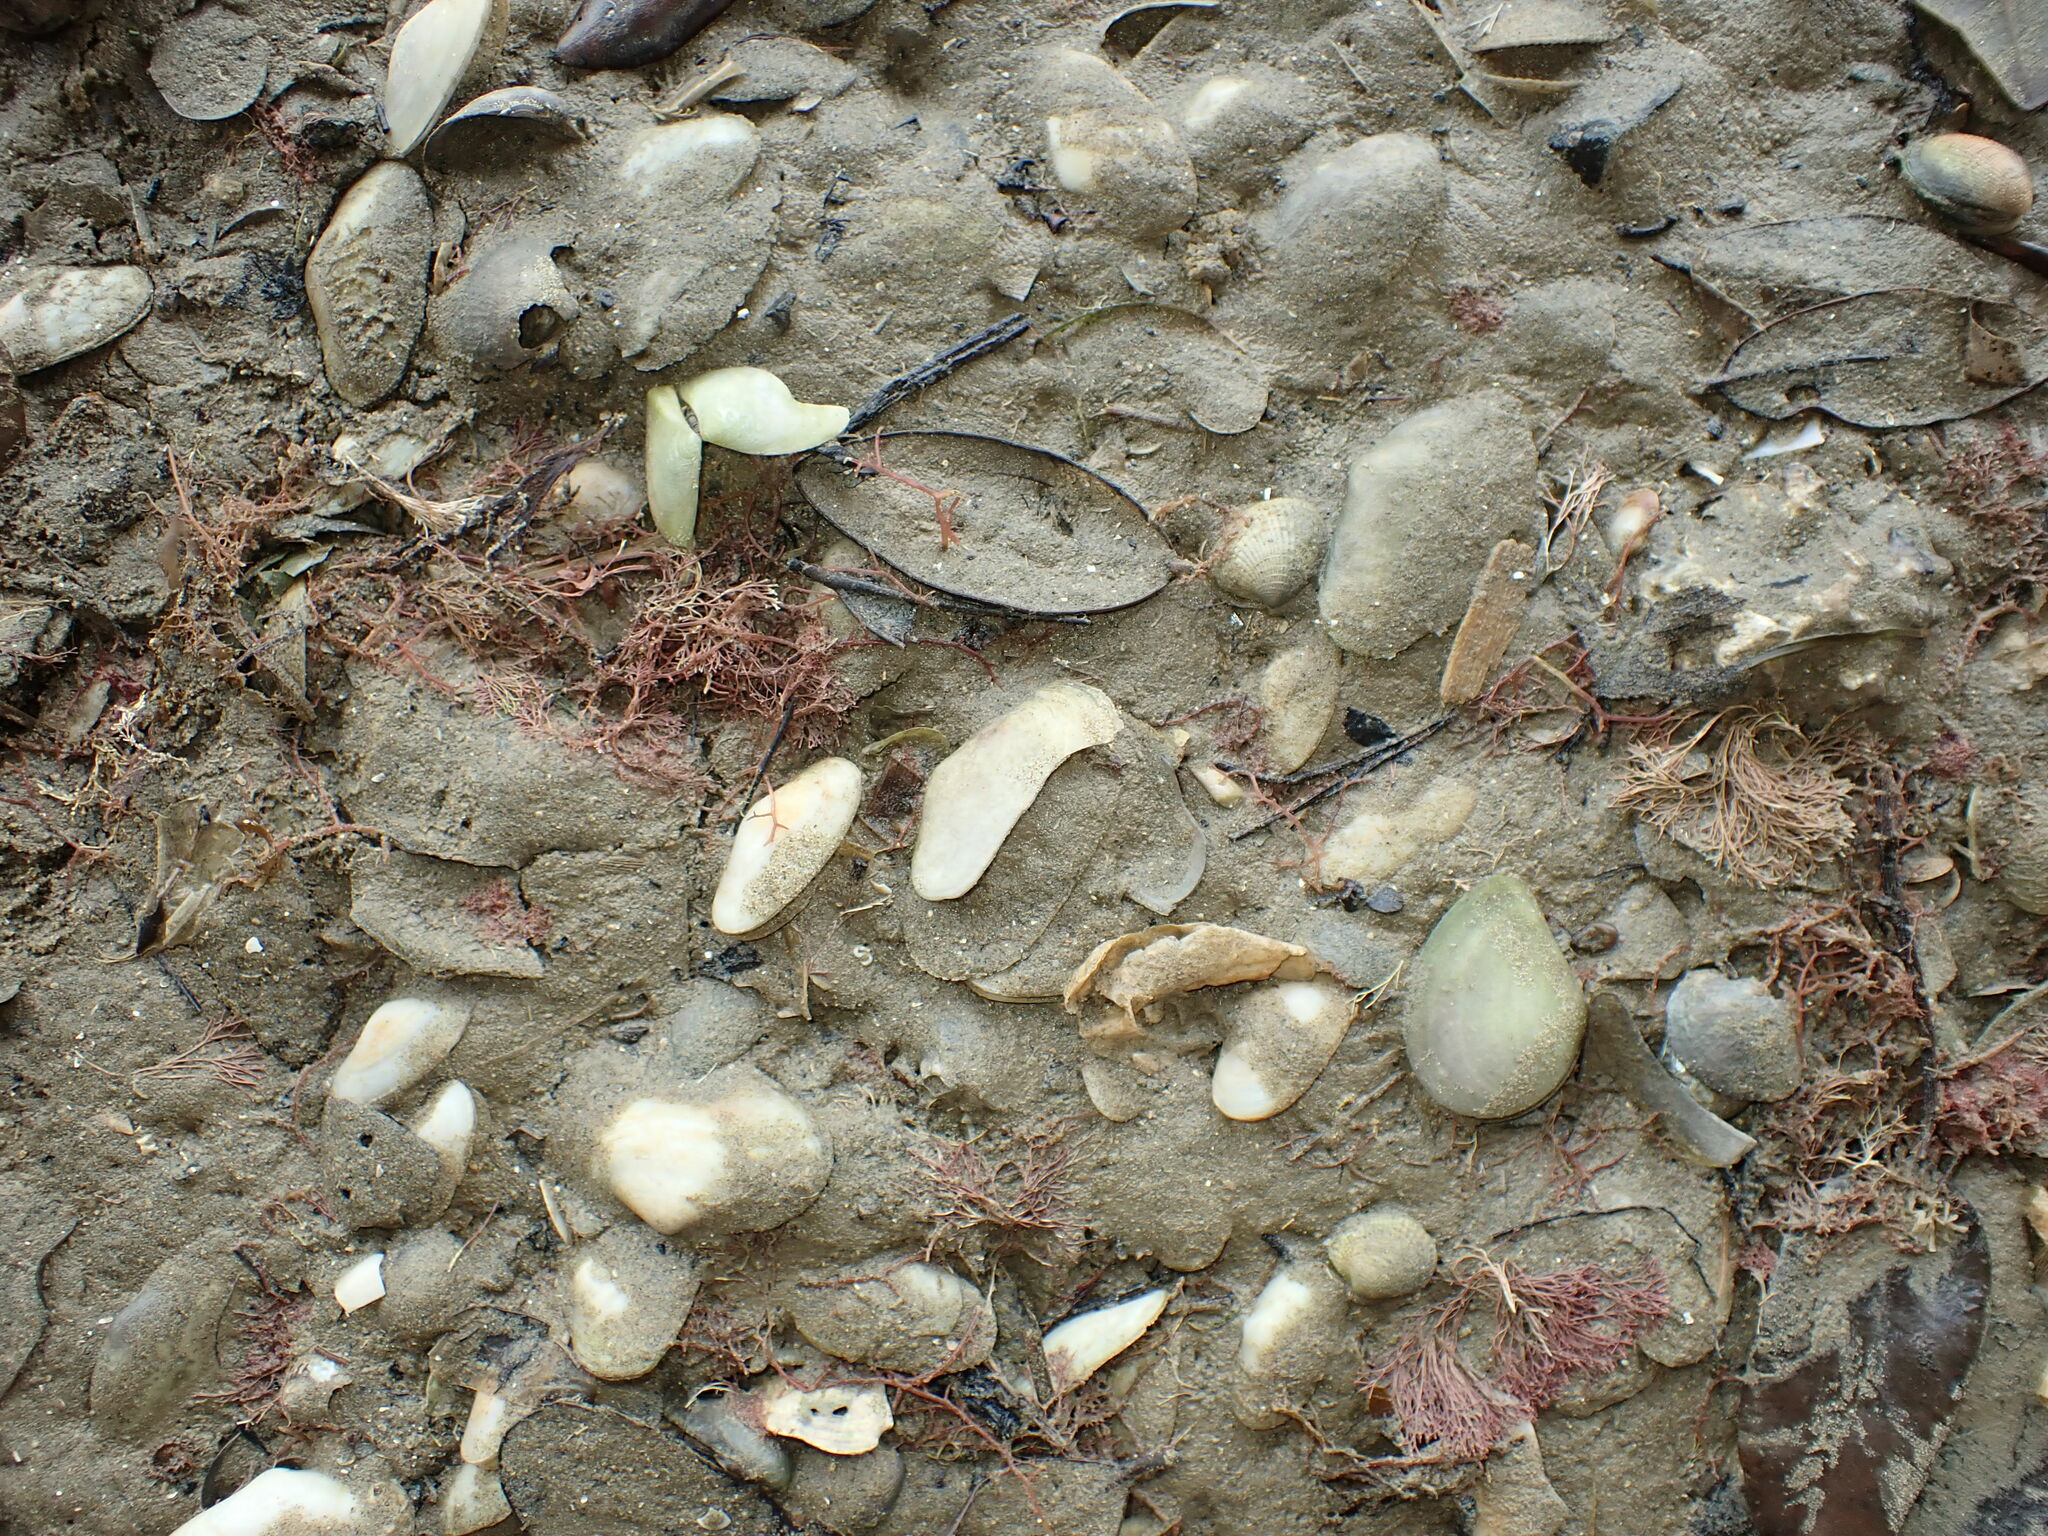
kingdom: Animalia
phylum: Mollusca
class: Bivalvia
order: Venerida
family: Mesodesmatidae
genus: Paphies
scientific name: Paphies australis
